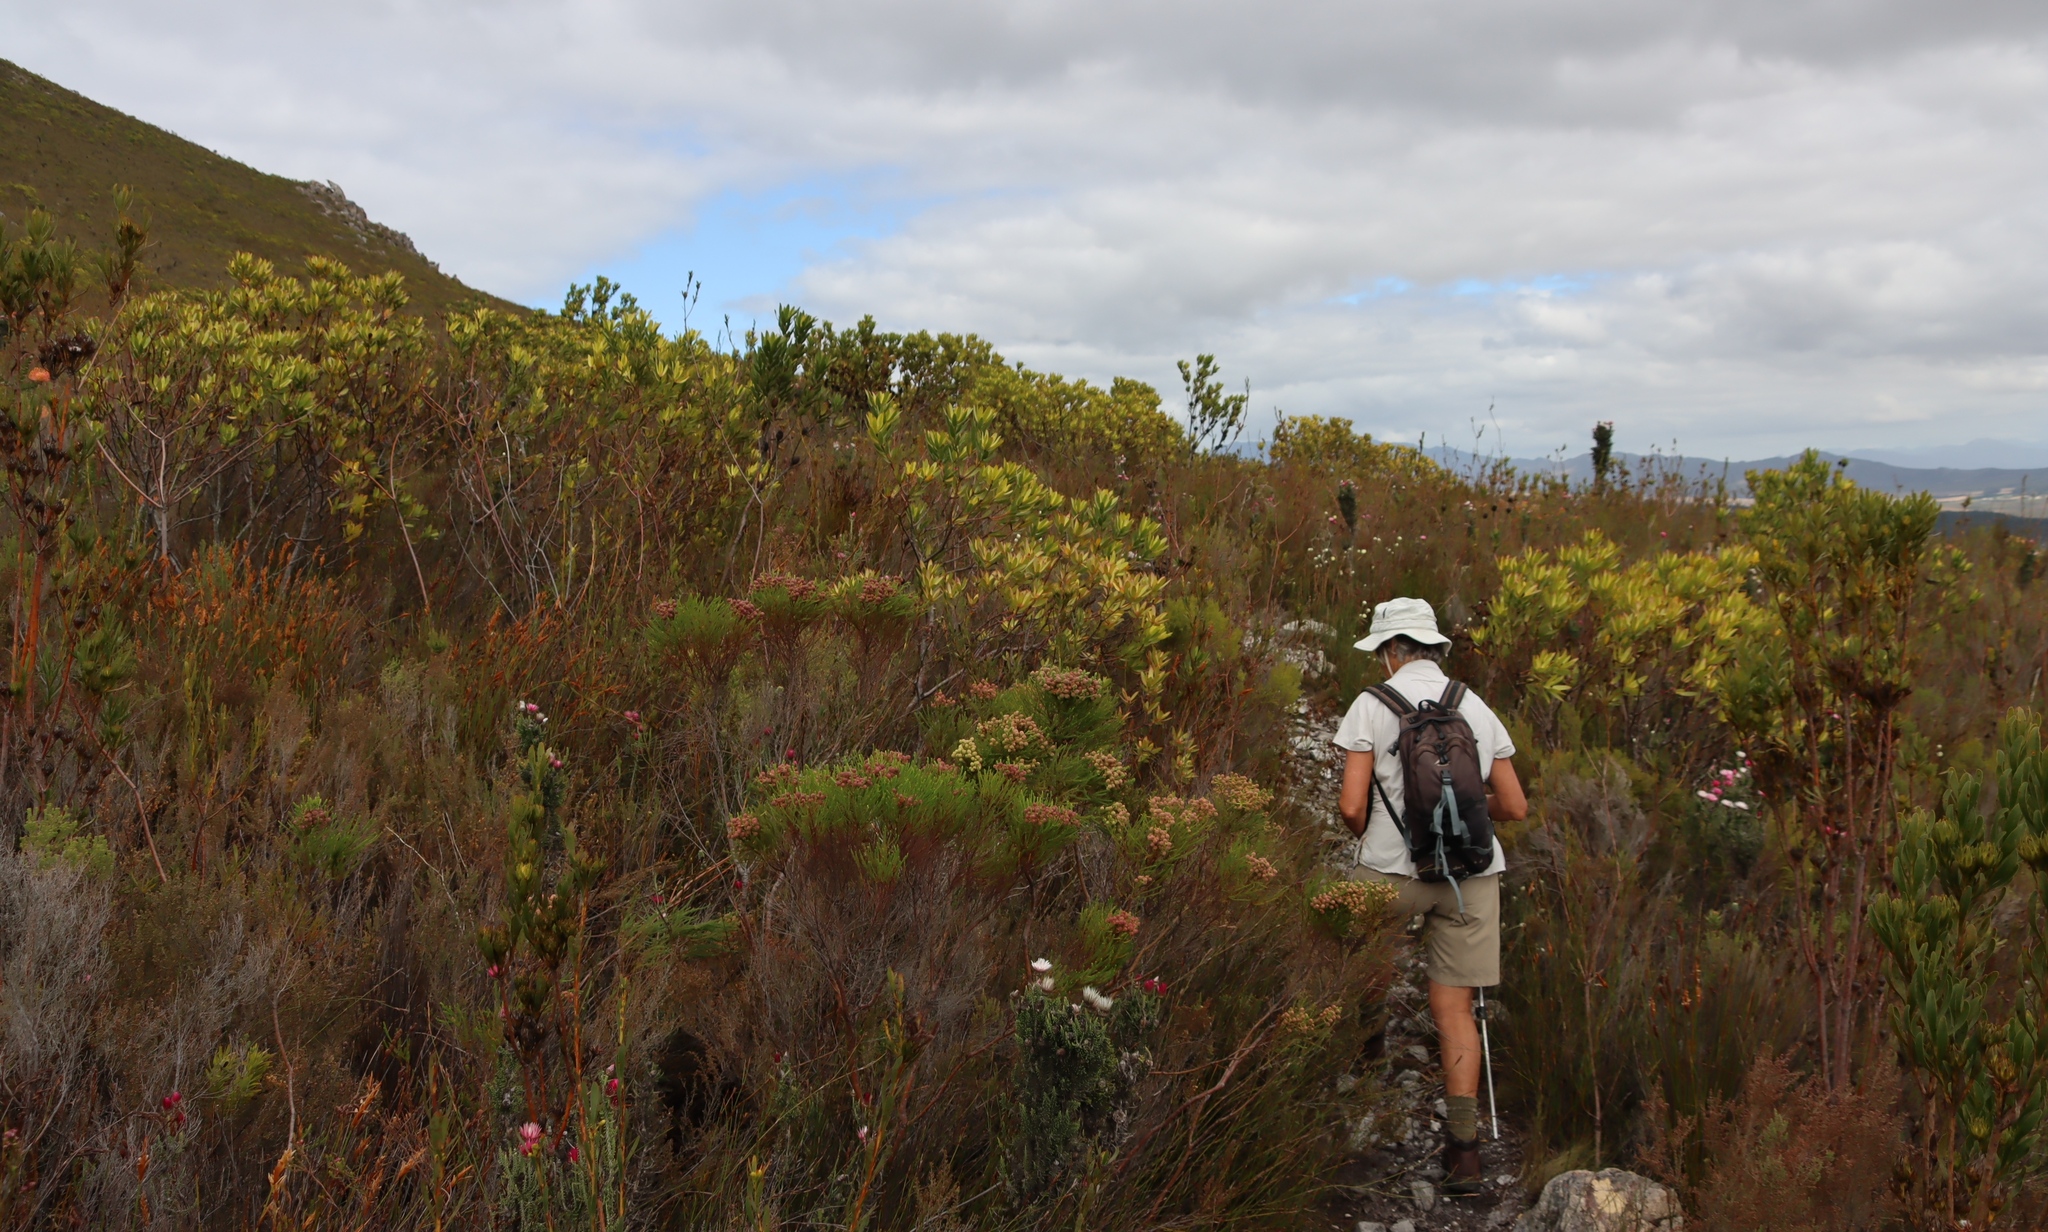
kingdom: Plantae
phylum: Tracheophyta
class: Magnoliopsida
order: Bruniales
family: Bruniaceae
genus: Berzelia
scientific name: Berzelia lanuginosa
